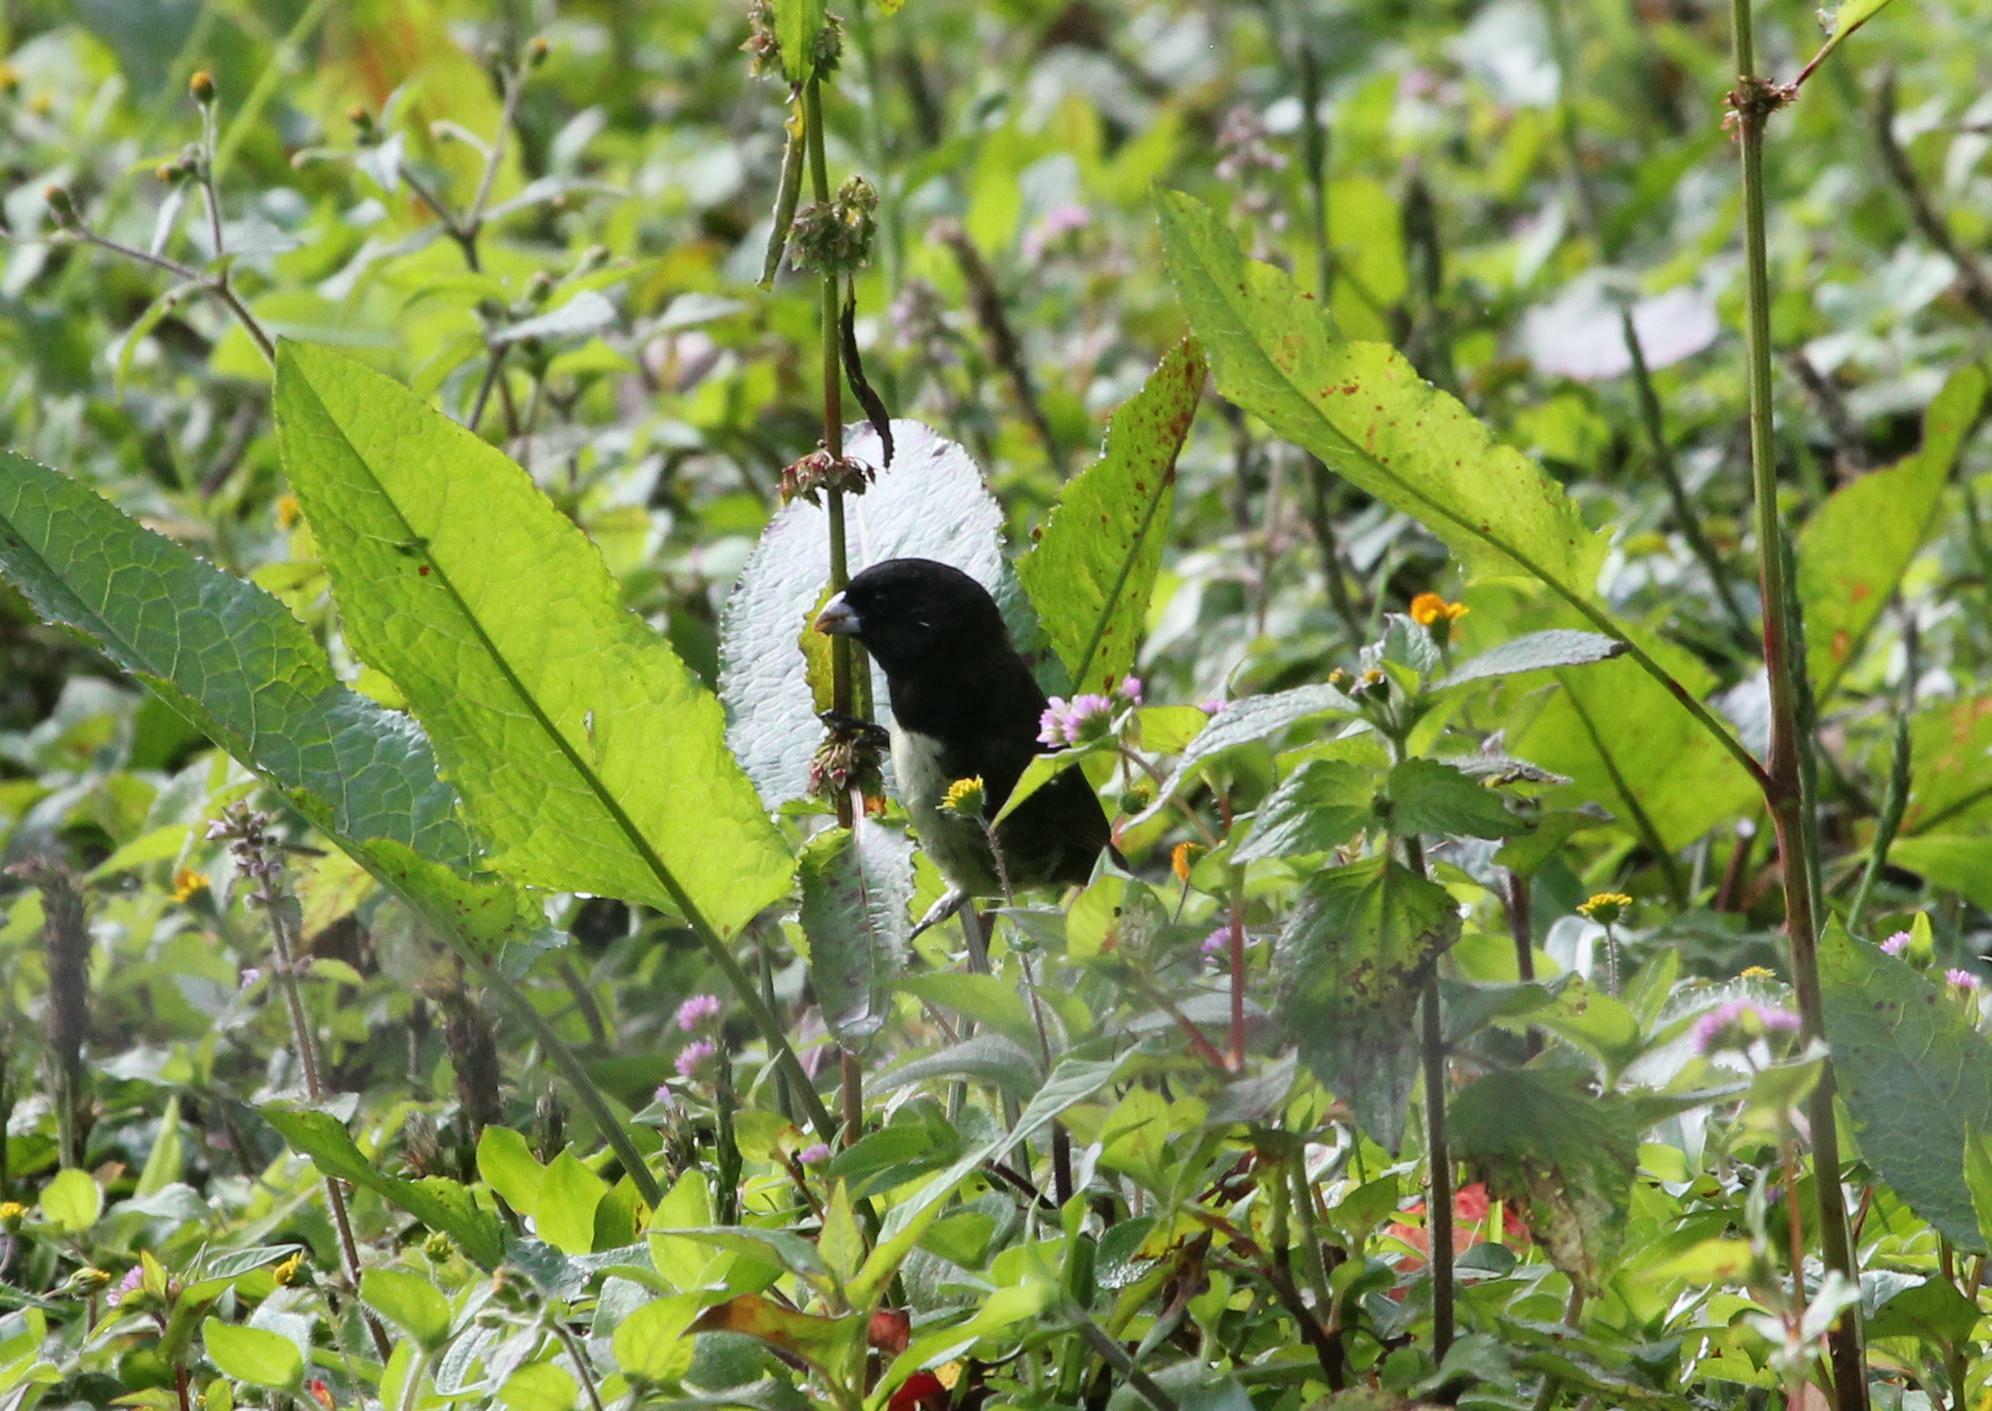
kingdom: Animalia
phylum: Chordata
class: Aves
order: Passeriformes
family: Thraupidae
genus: Sporophila
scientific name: Sporophila nigricollis
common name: Yellow-bellied seedeater
